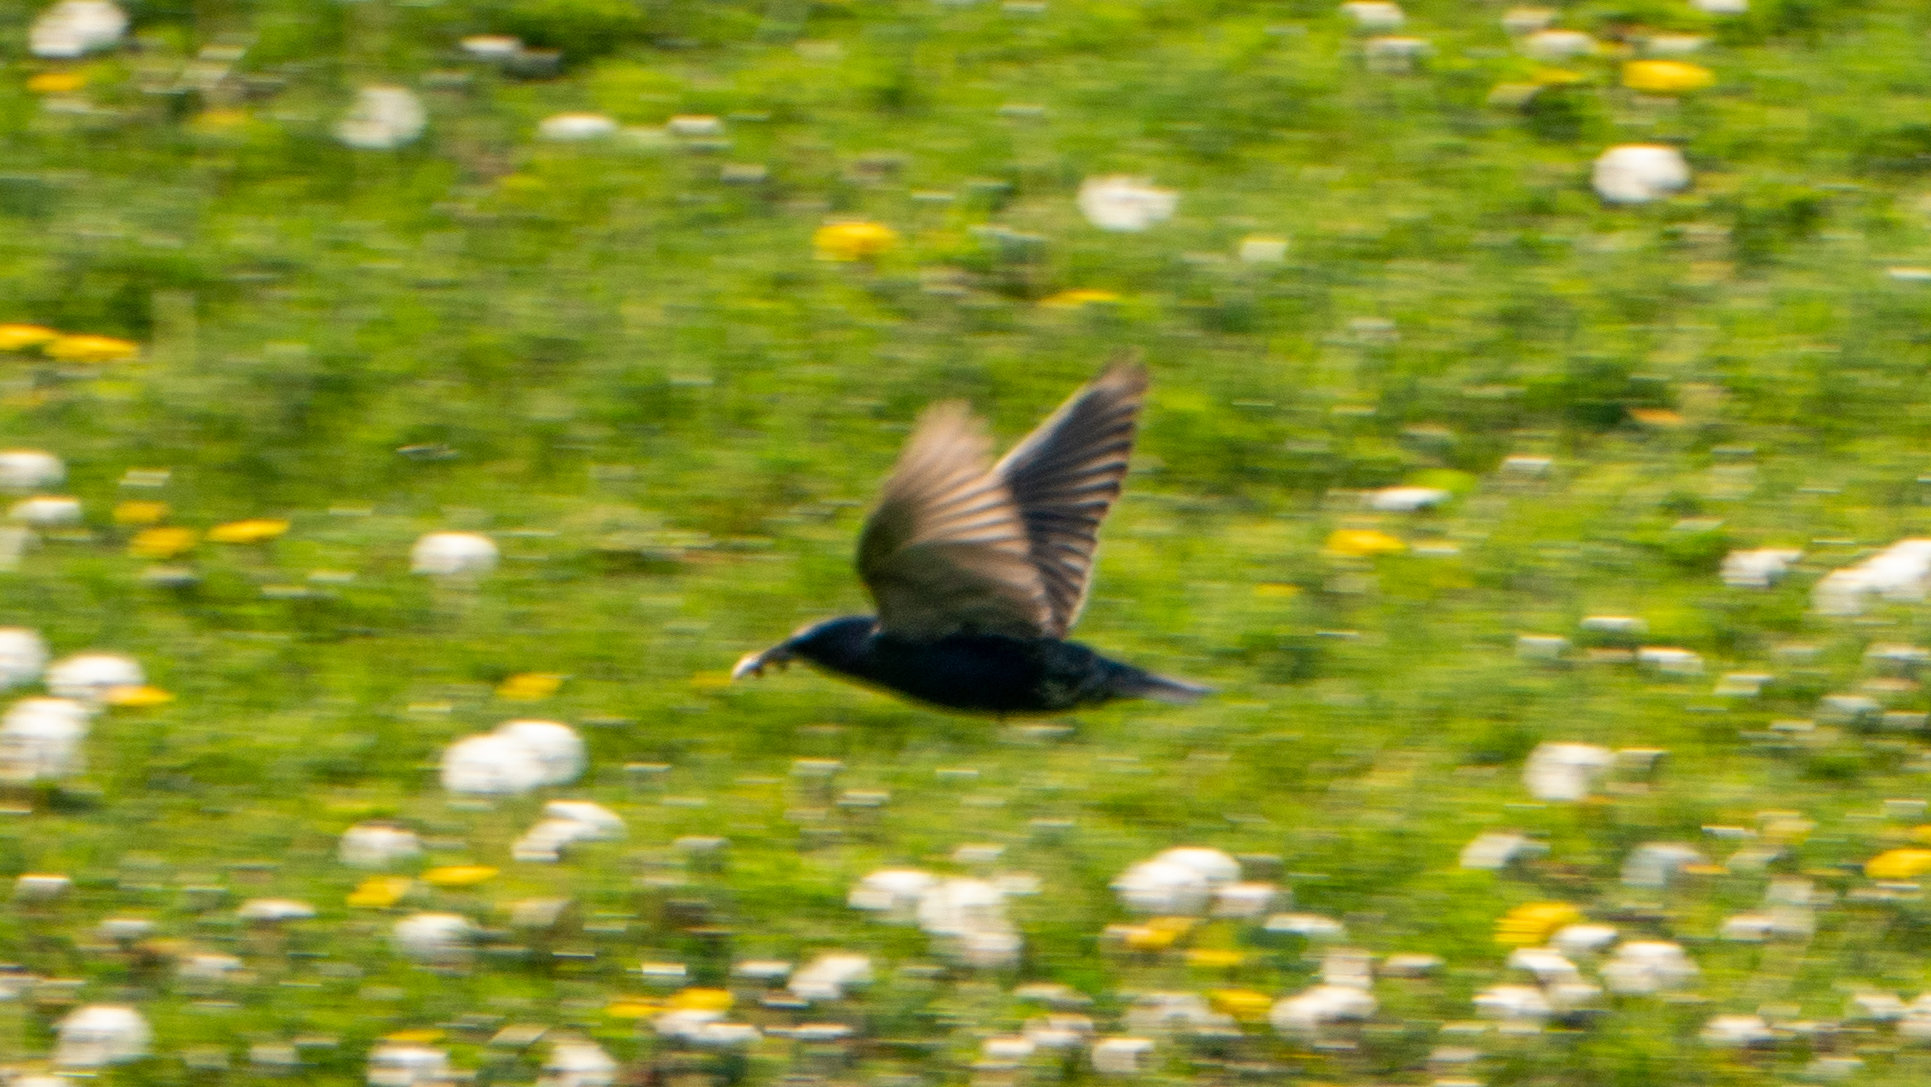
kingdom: Animalia
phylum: Chordata
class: Aves
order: Passeriformes
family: Sturnidae
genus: Sturnus
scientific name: Sturnus vulgaris
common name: Common starling
